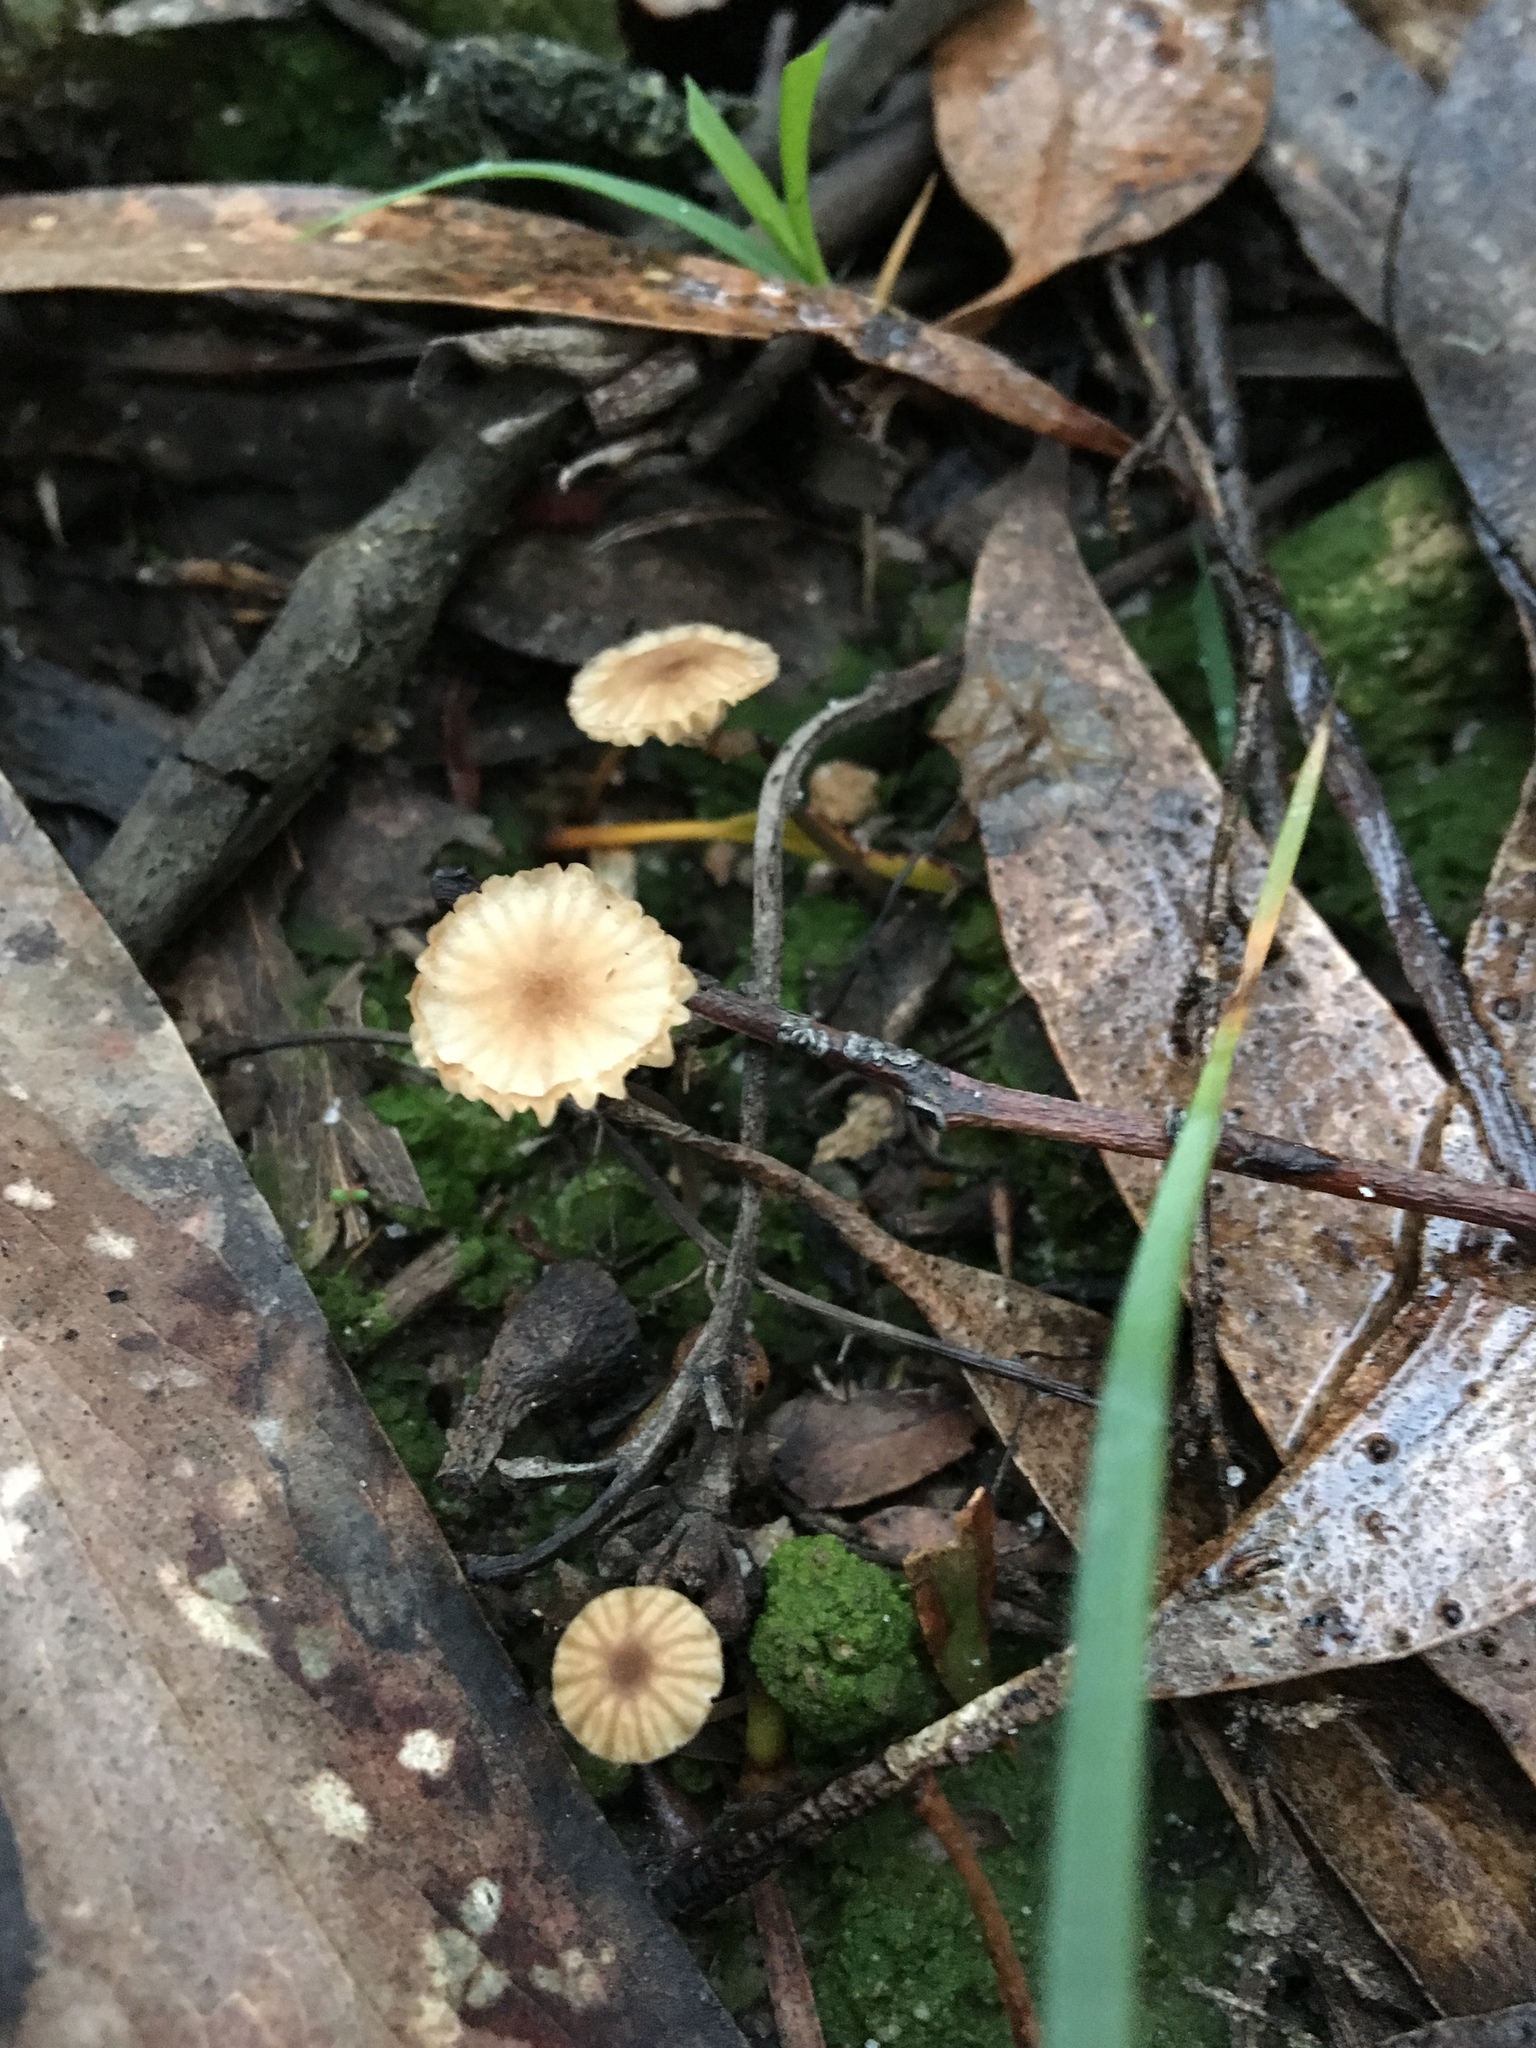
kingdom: Fungi
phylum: Basidiomycota
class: Agaricomycetes
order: Agaricales
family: Hygrophoraceae
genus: Lichenomphalia
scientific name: Lichenomphalia
